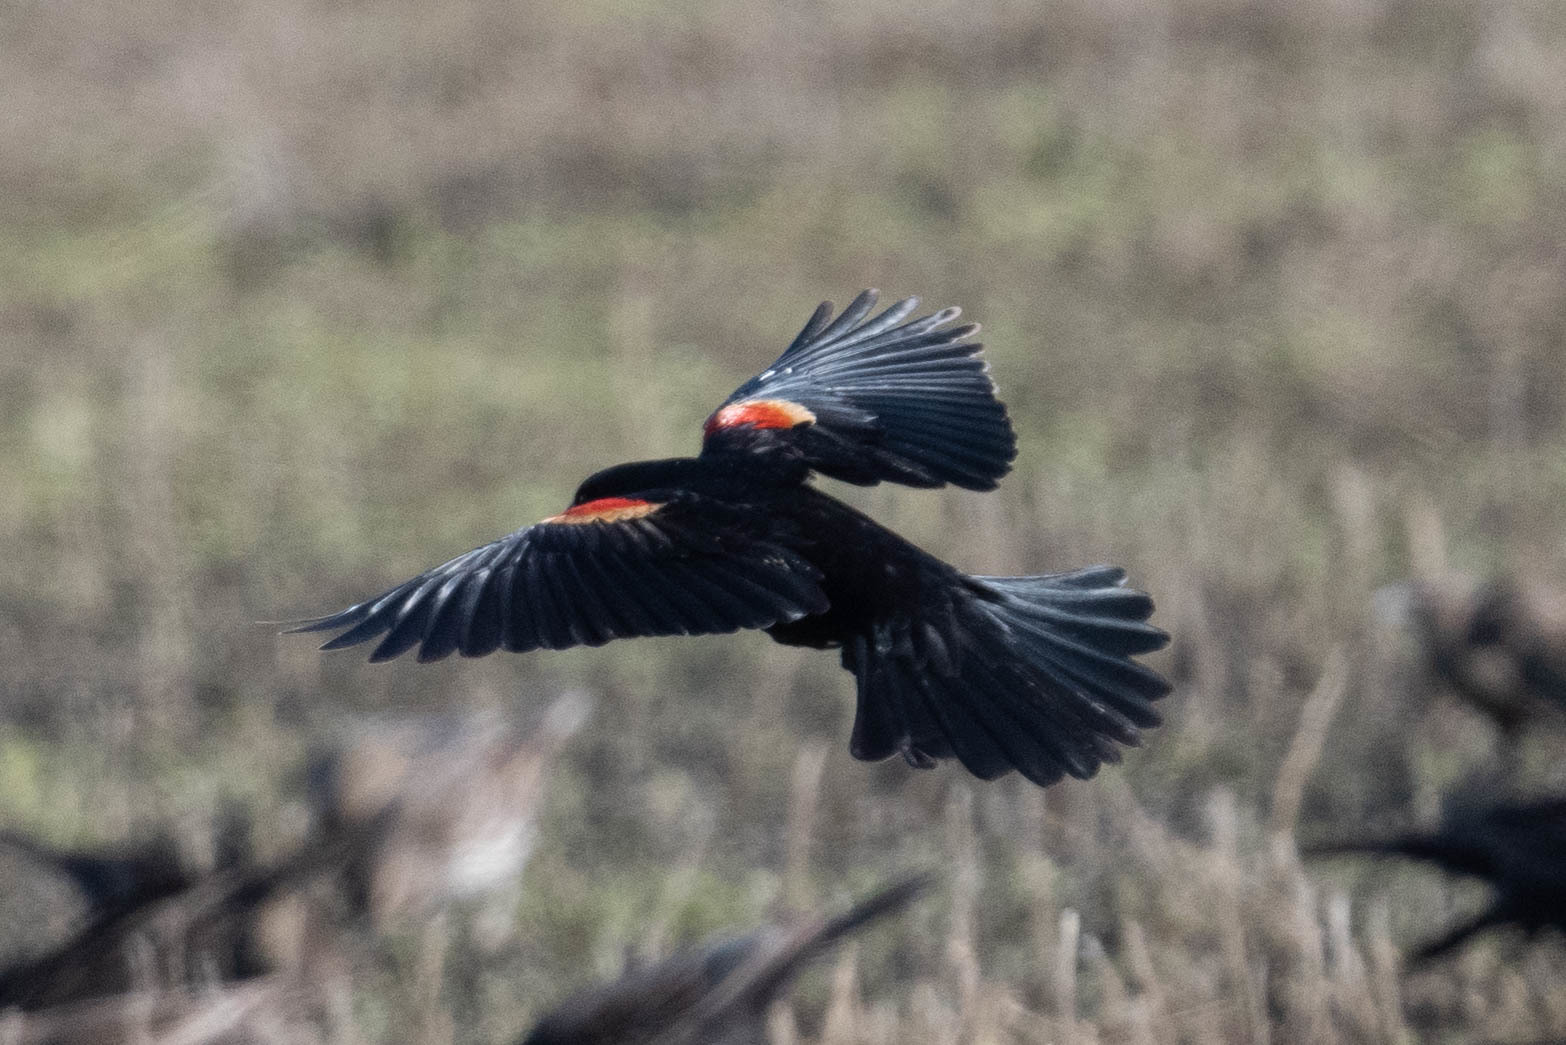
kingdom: Animalia
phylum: Chordata
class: Aves
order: Passeriformes
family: Icteridae
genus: Agelaius
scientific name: Agelaius phoeniceus
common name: Red-winged blackbird
